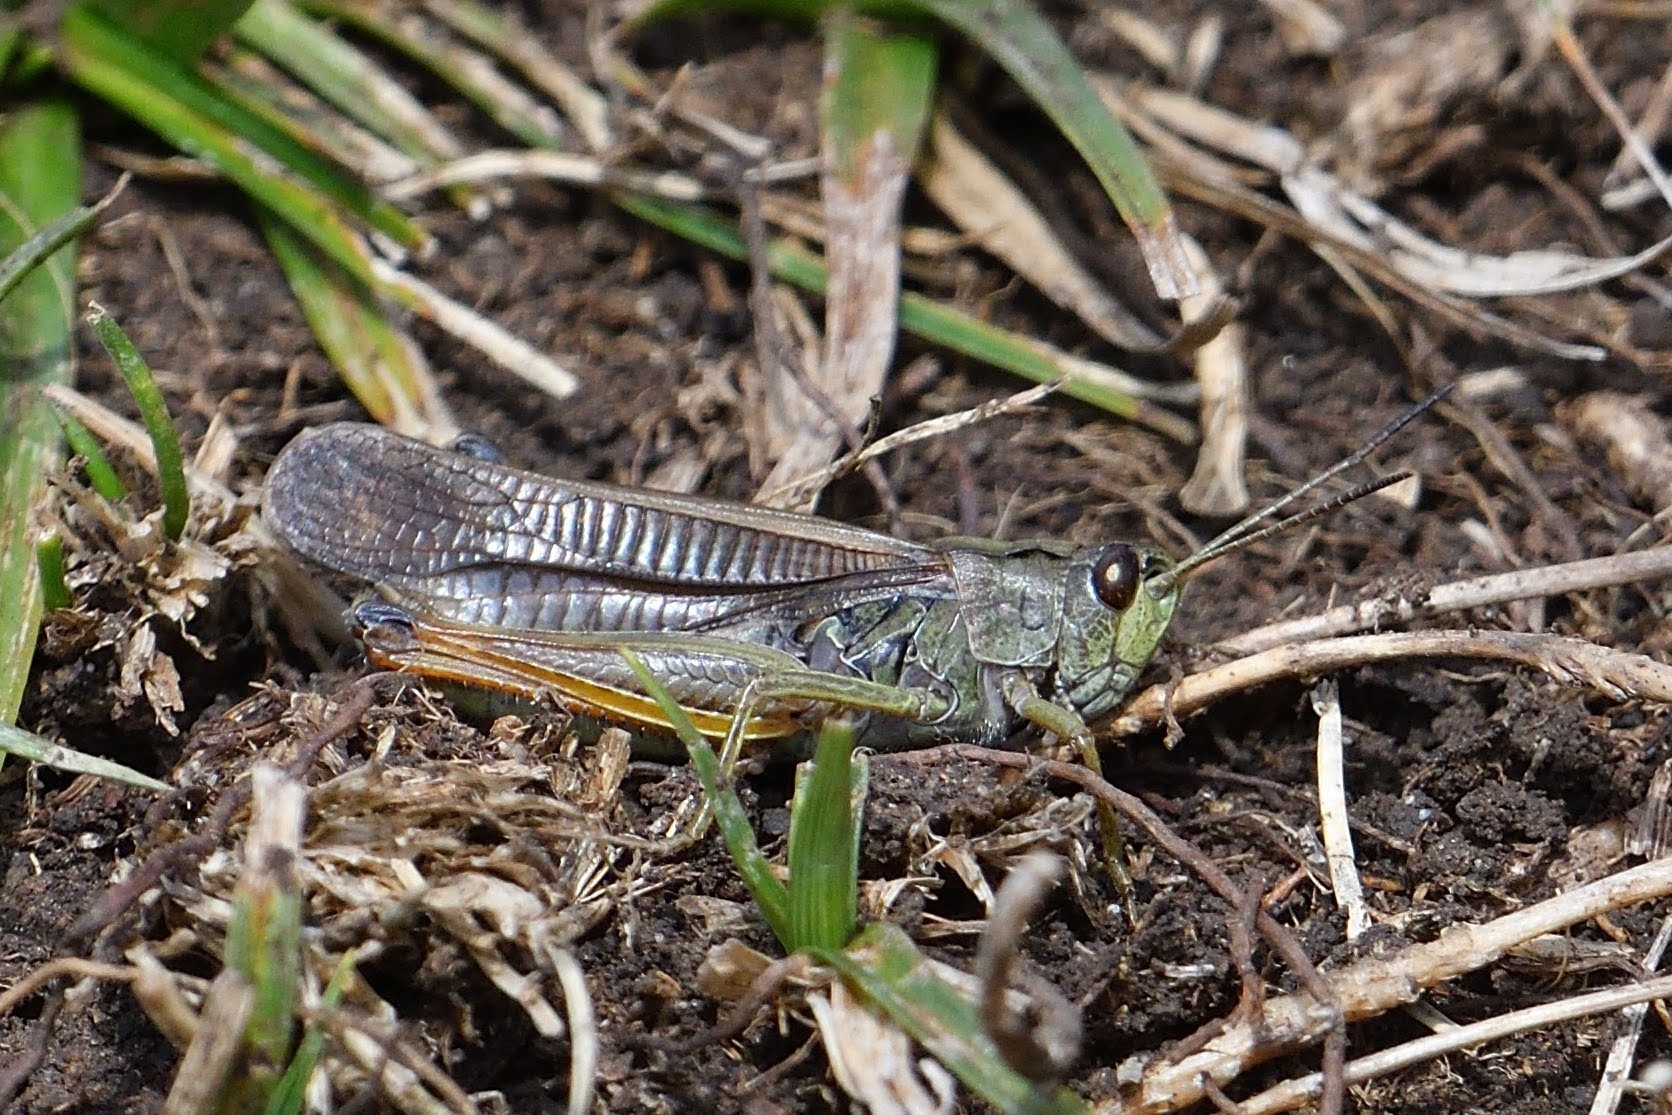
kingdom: Animalia
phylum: Arthropoda
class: Insecta
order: Orthoptera
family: Acrididae
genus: Stauroderus
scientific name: Stauroderus scalaris
